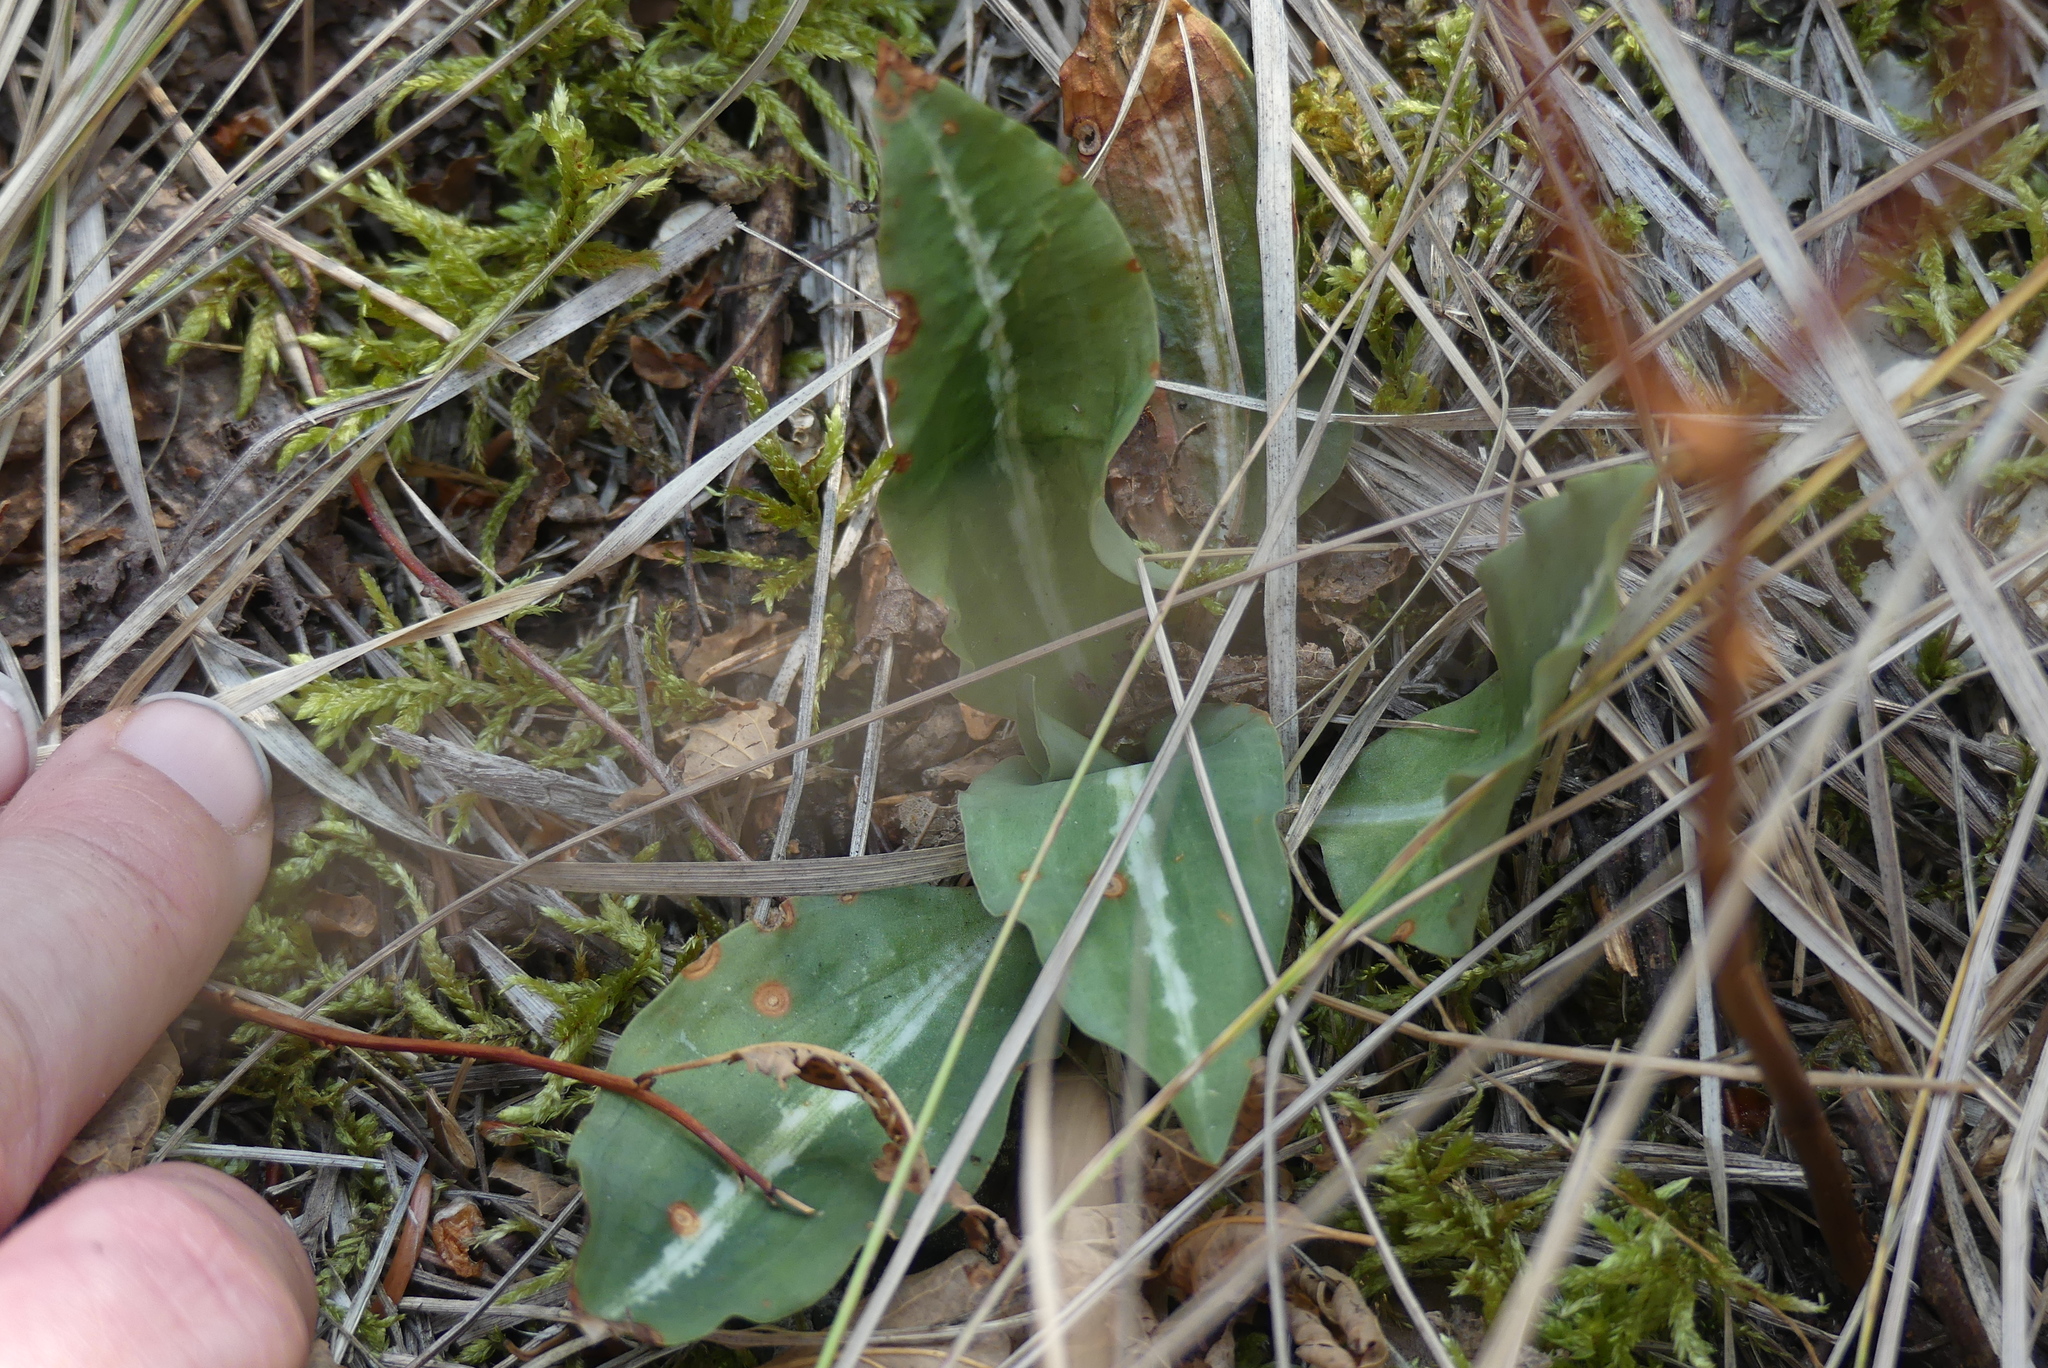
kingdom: Plantae
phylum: Tracheophyta
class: Liliopsida
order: Asparagales
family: Orchidaceae
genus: Goodyera
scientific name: Goodyera oblongifolia
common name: Giant rattlesnake-plantain
